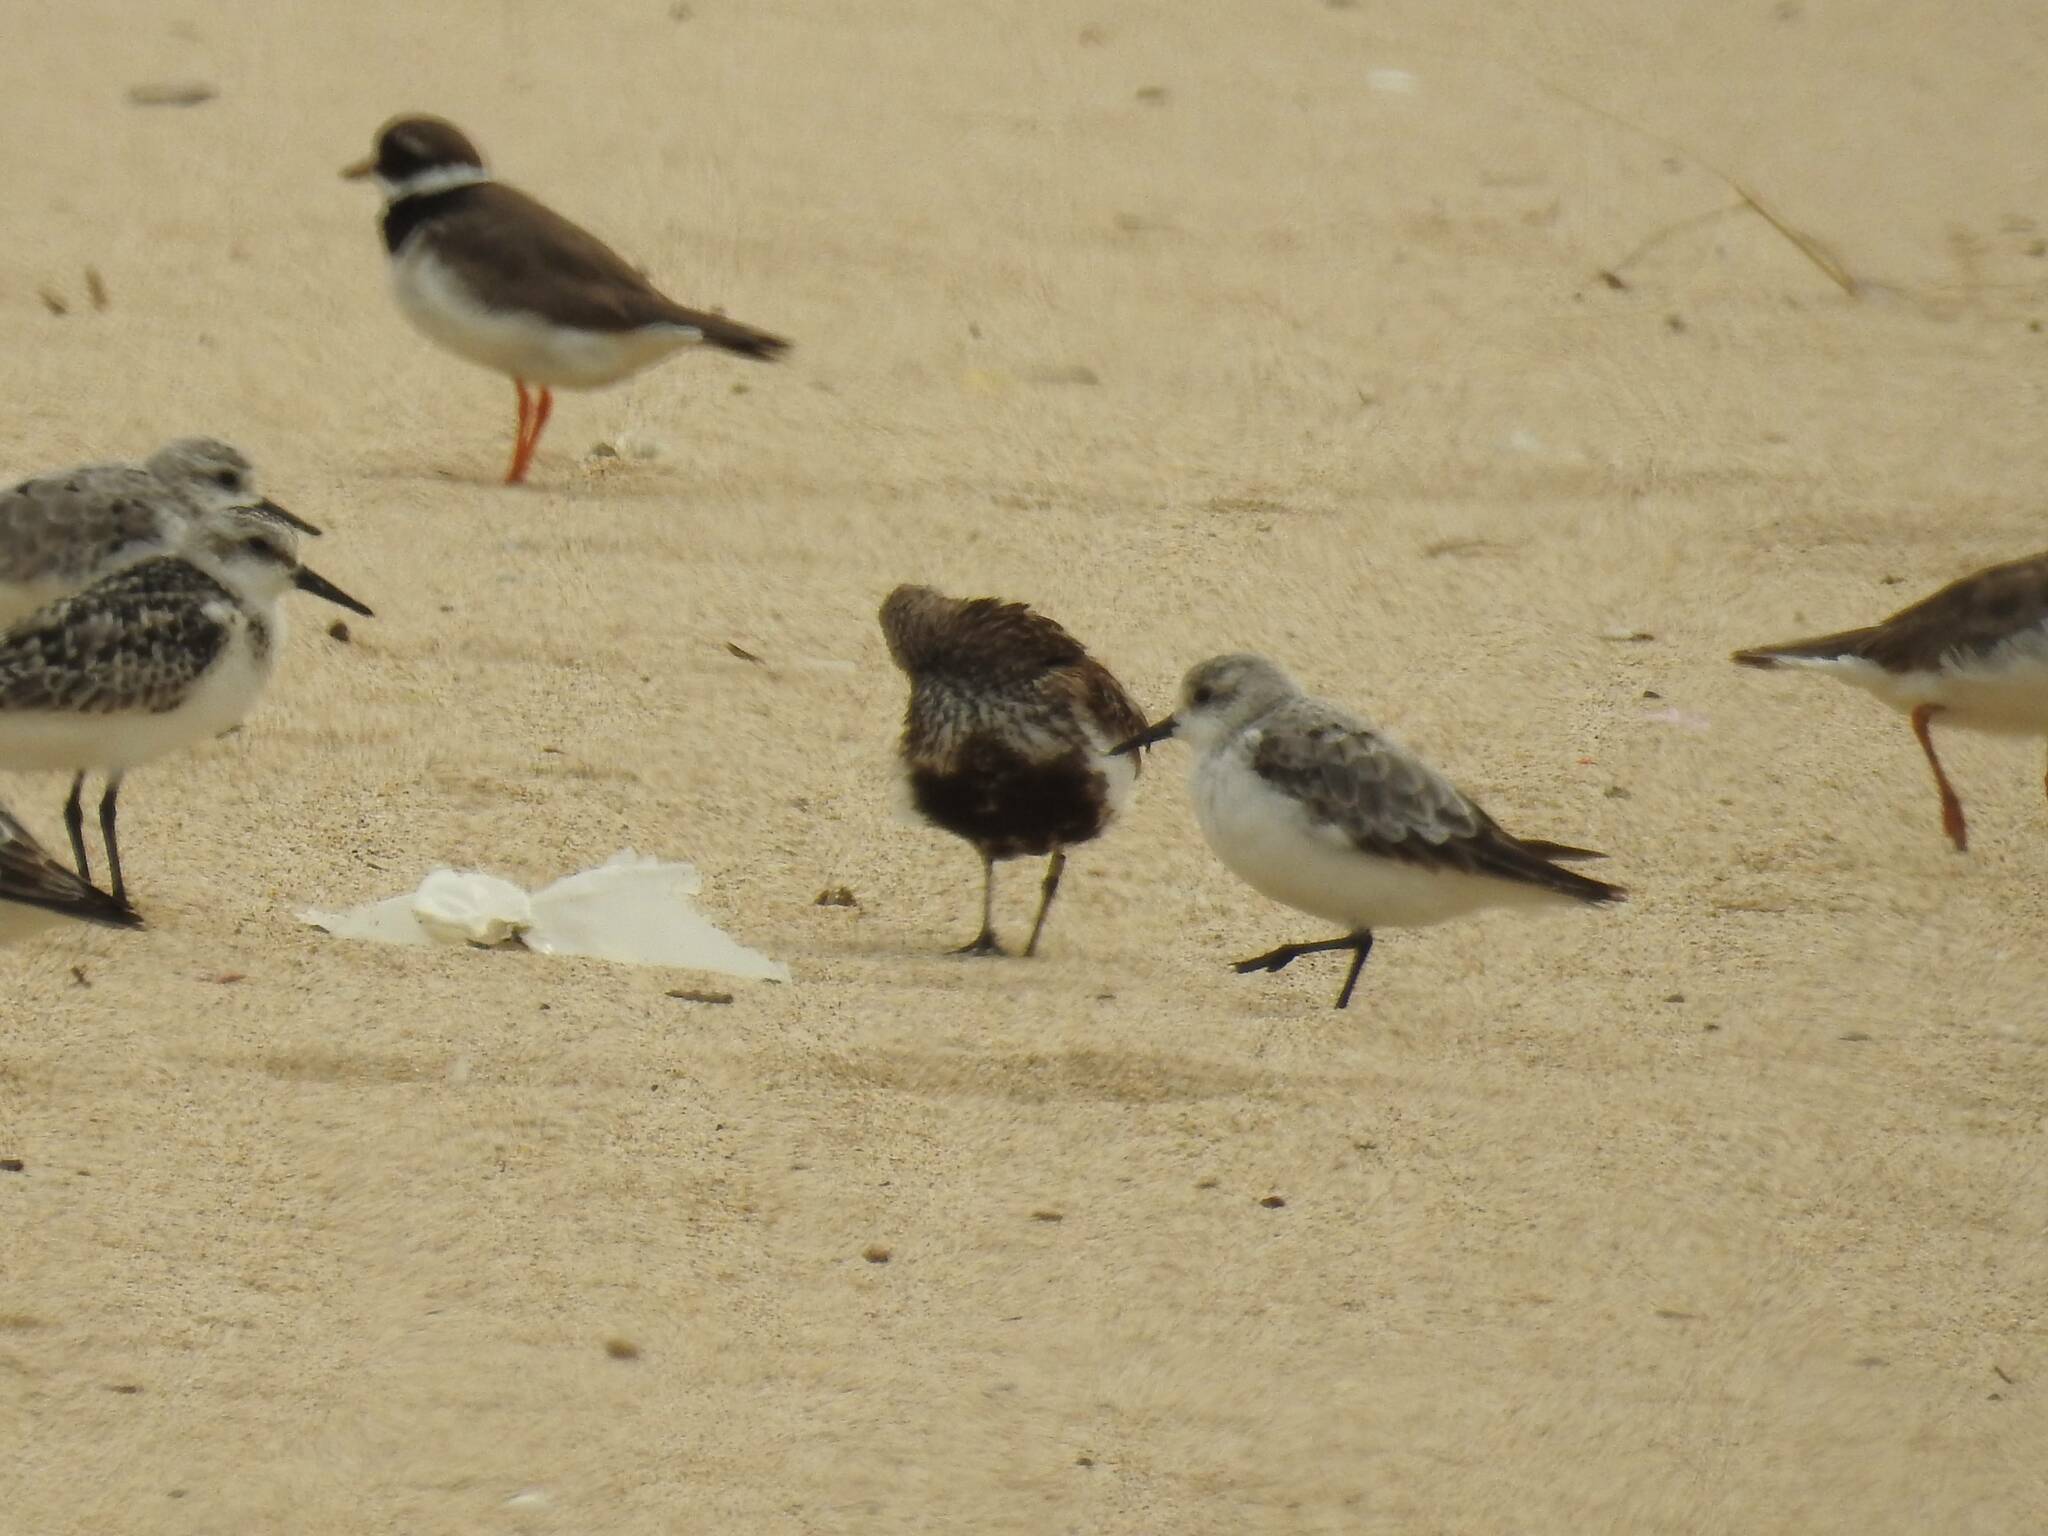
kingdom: Animalia
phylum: Chordata
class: Aves
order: Charadriiformes
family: Scolopacidae
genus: Calidris
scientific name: Calidris alba
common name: Sanderling
